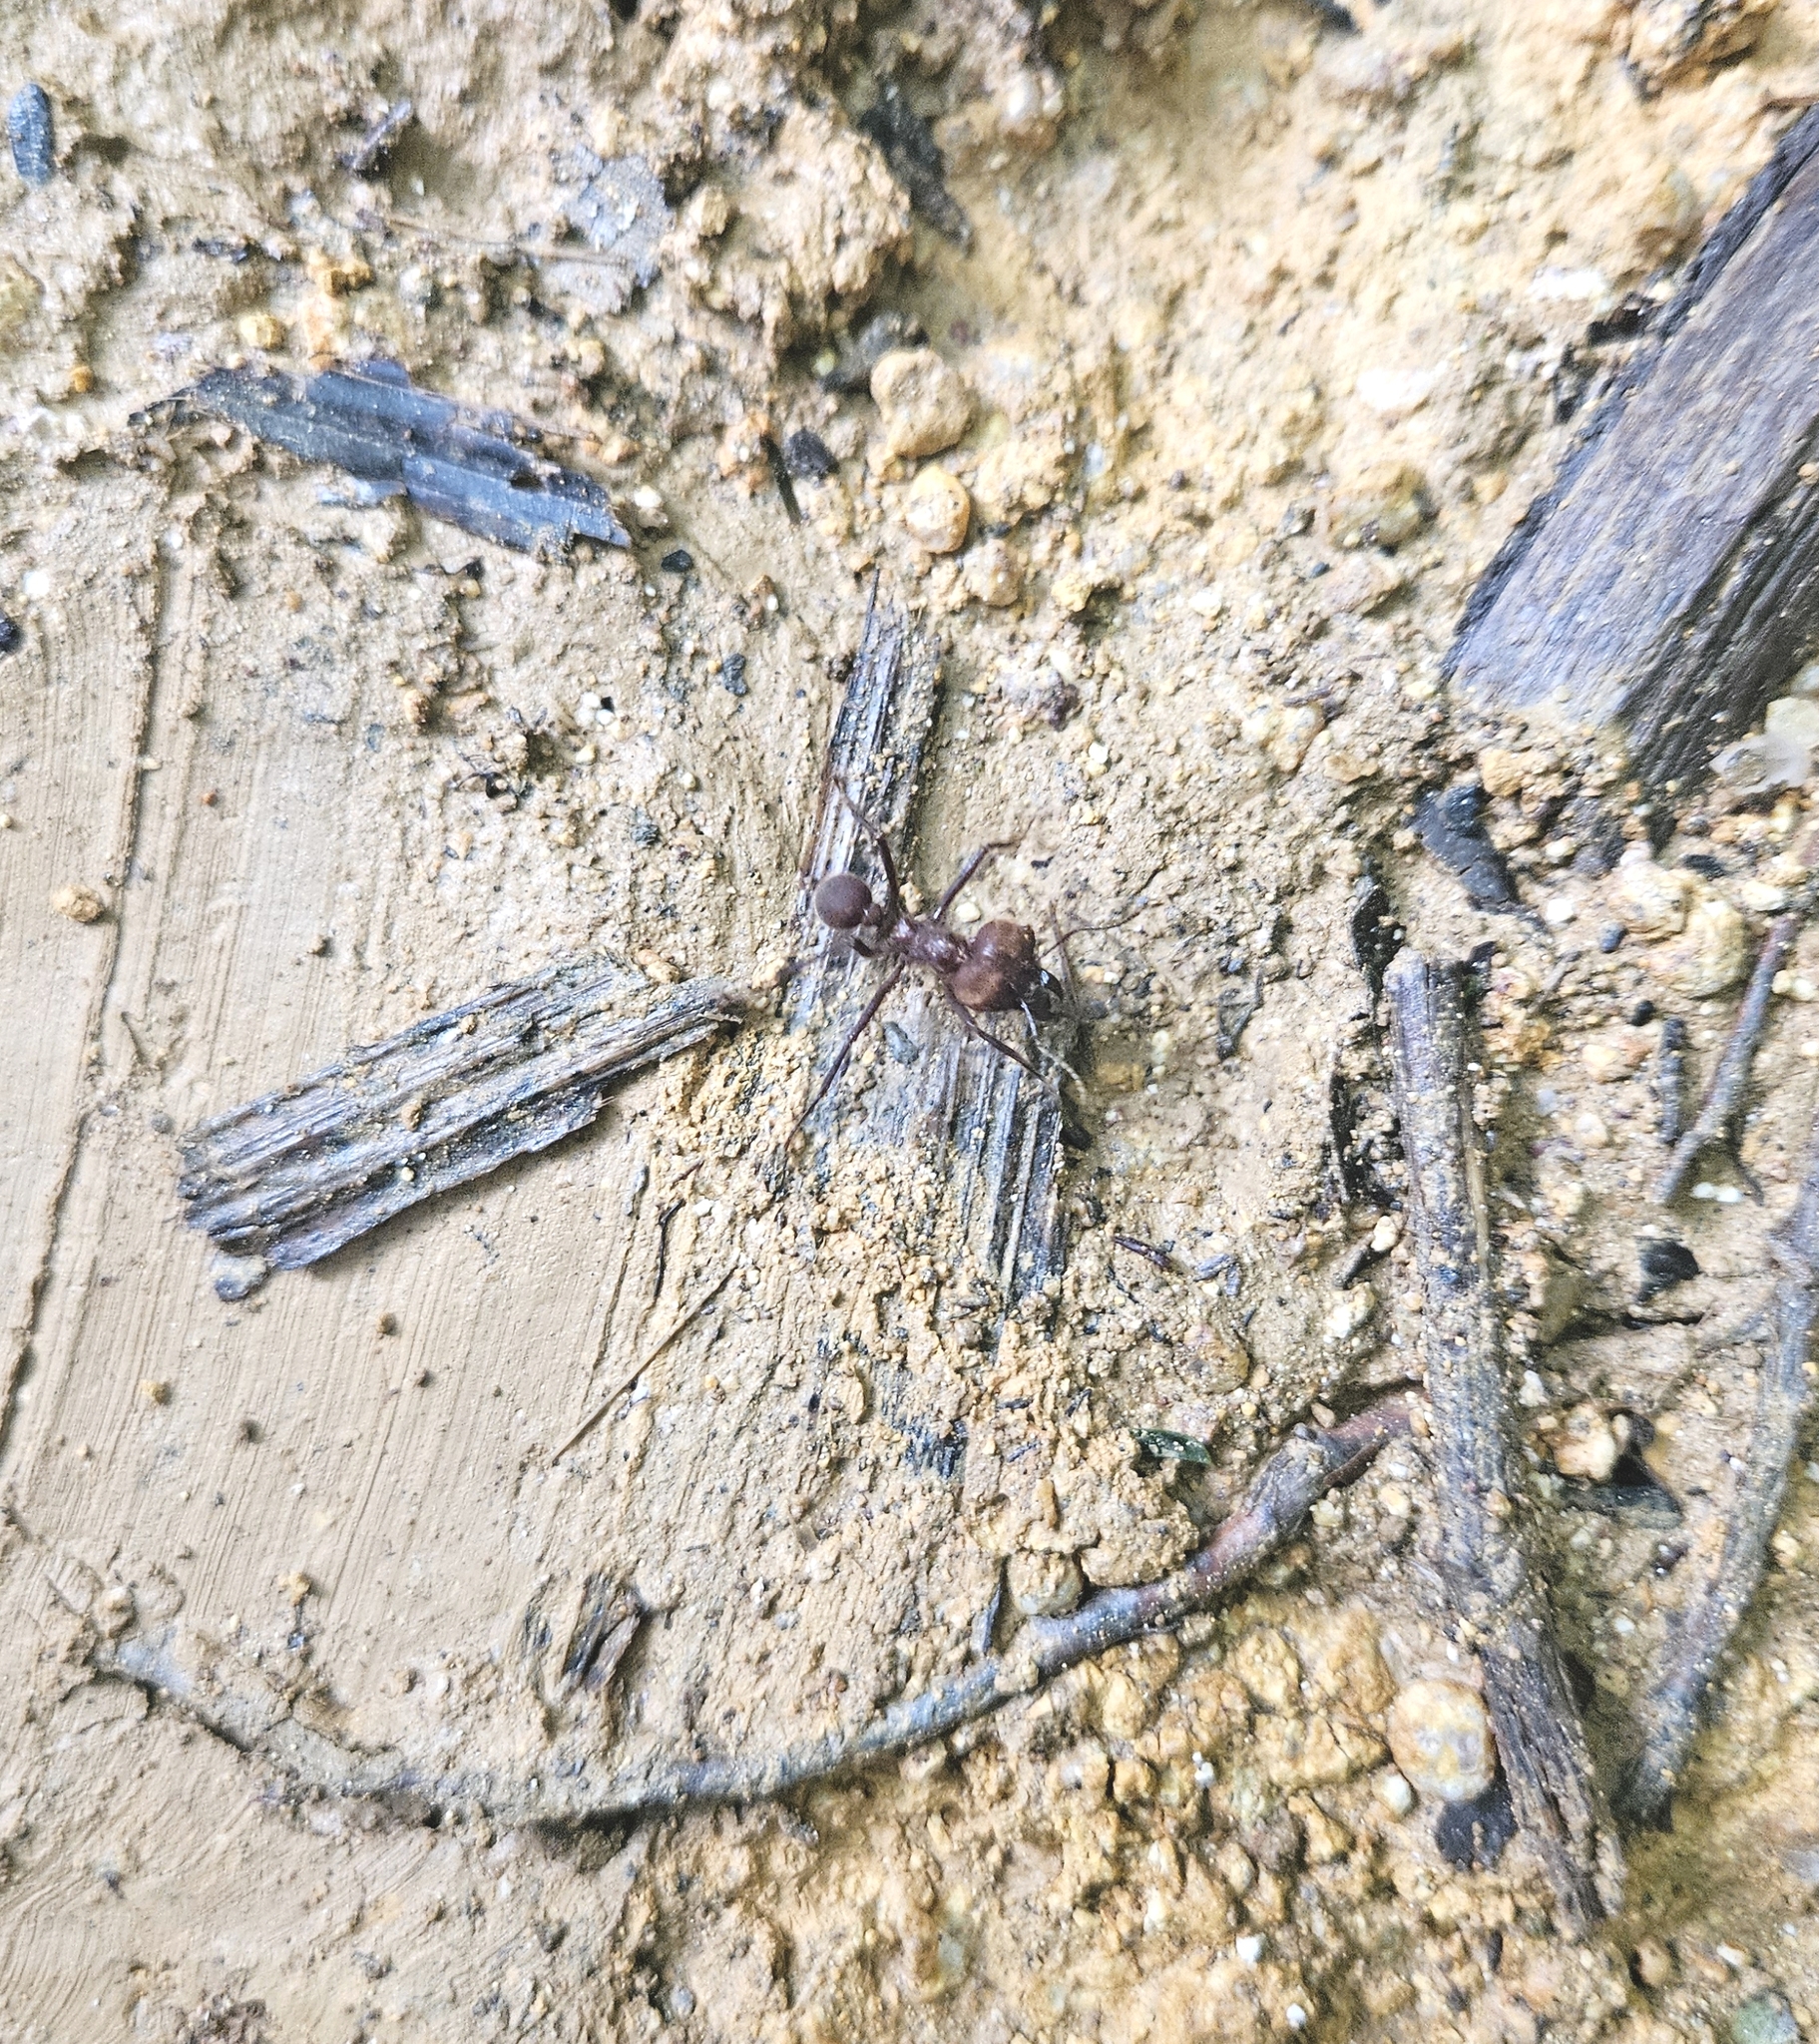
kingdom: Animalia
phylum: Arthropoda
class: Insecta
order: Hymenoptera
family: Formicidae
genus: Atta
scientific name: Atta cephalotes
